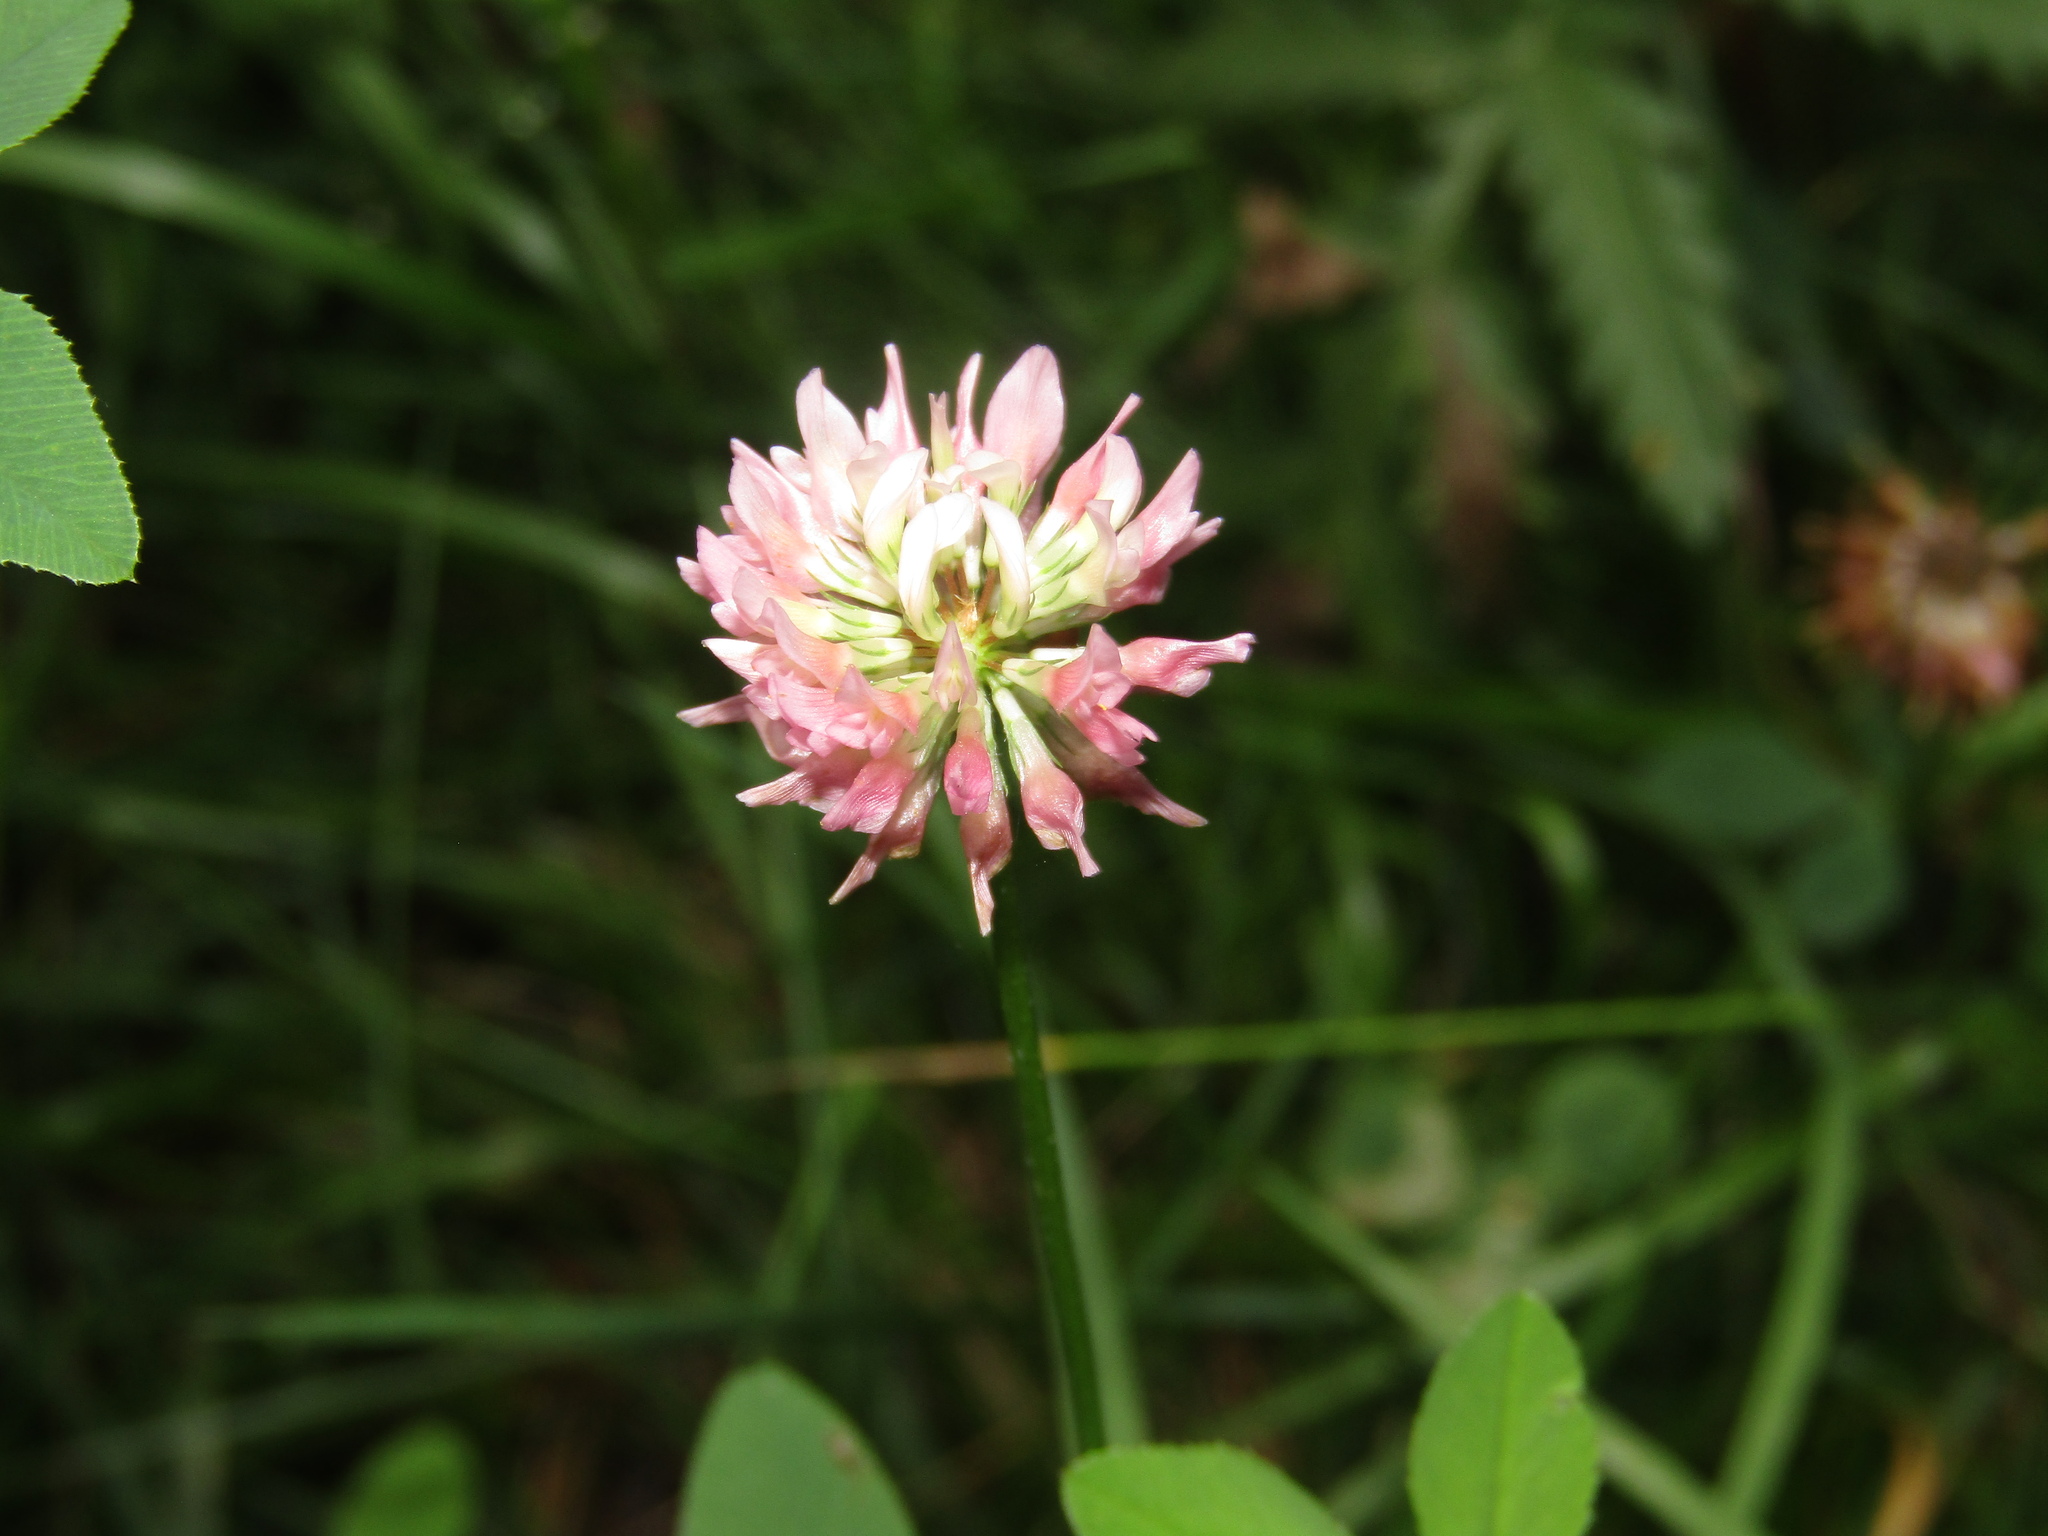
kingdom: Plantae
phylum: Tracheophyta
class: Magnoliopsida
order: Fabales
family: Fabaceae
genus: Trifolium
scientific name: Trifolium hybridum
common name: Alsike clover
